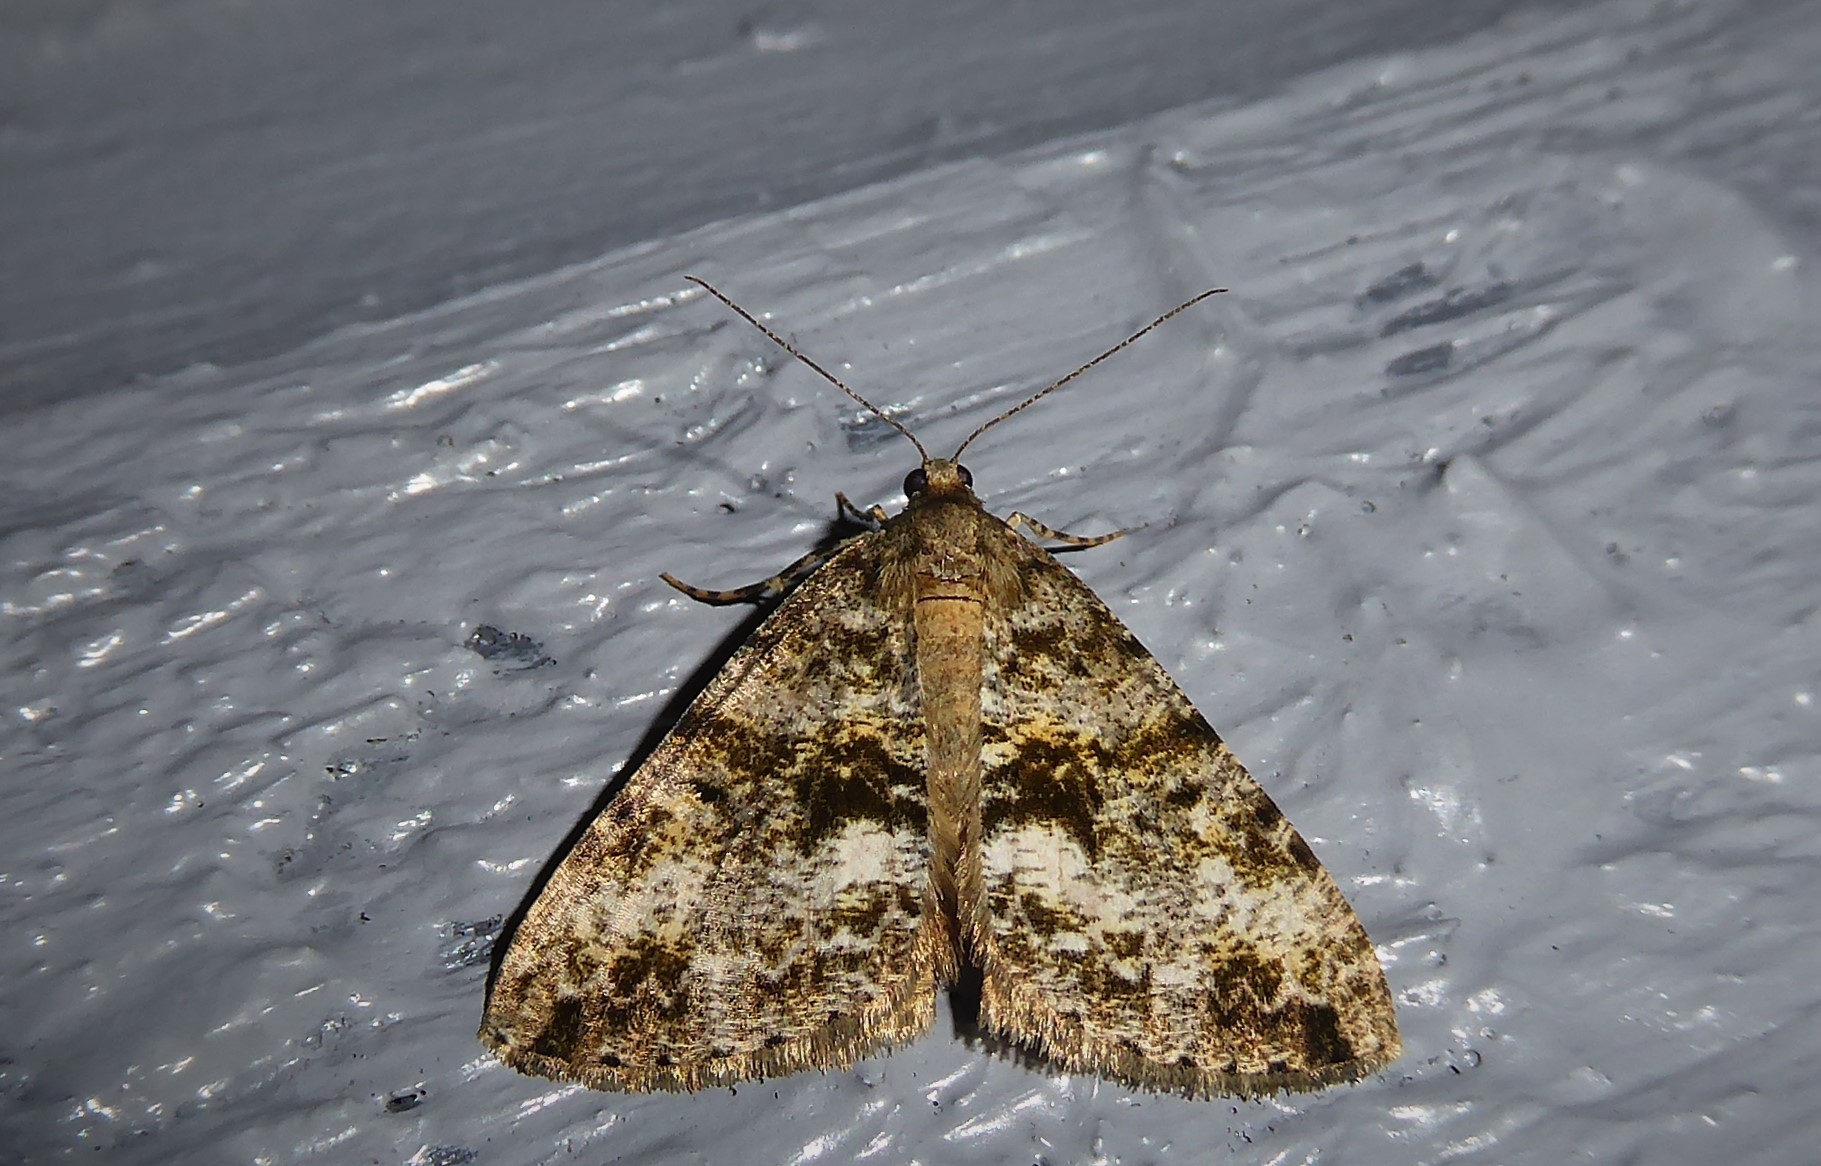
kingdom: Animalia
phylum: Arthropoda
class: Insecta
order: Lepidoptera
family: Geometridae
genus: Pseudocoremia
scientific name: Pseudocoremia lactiflua
